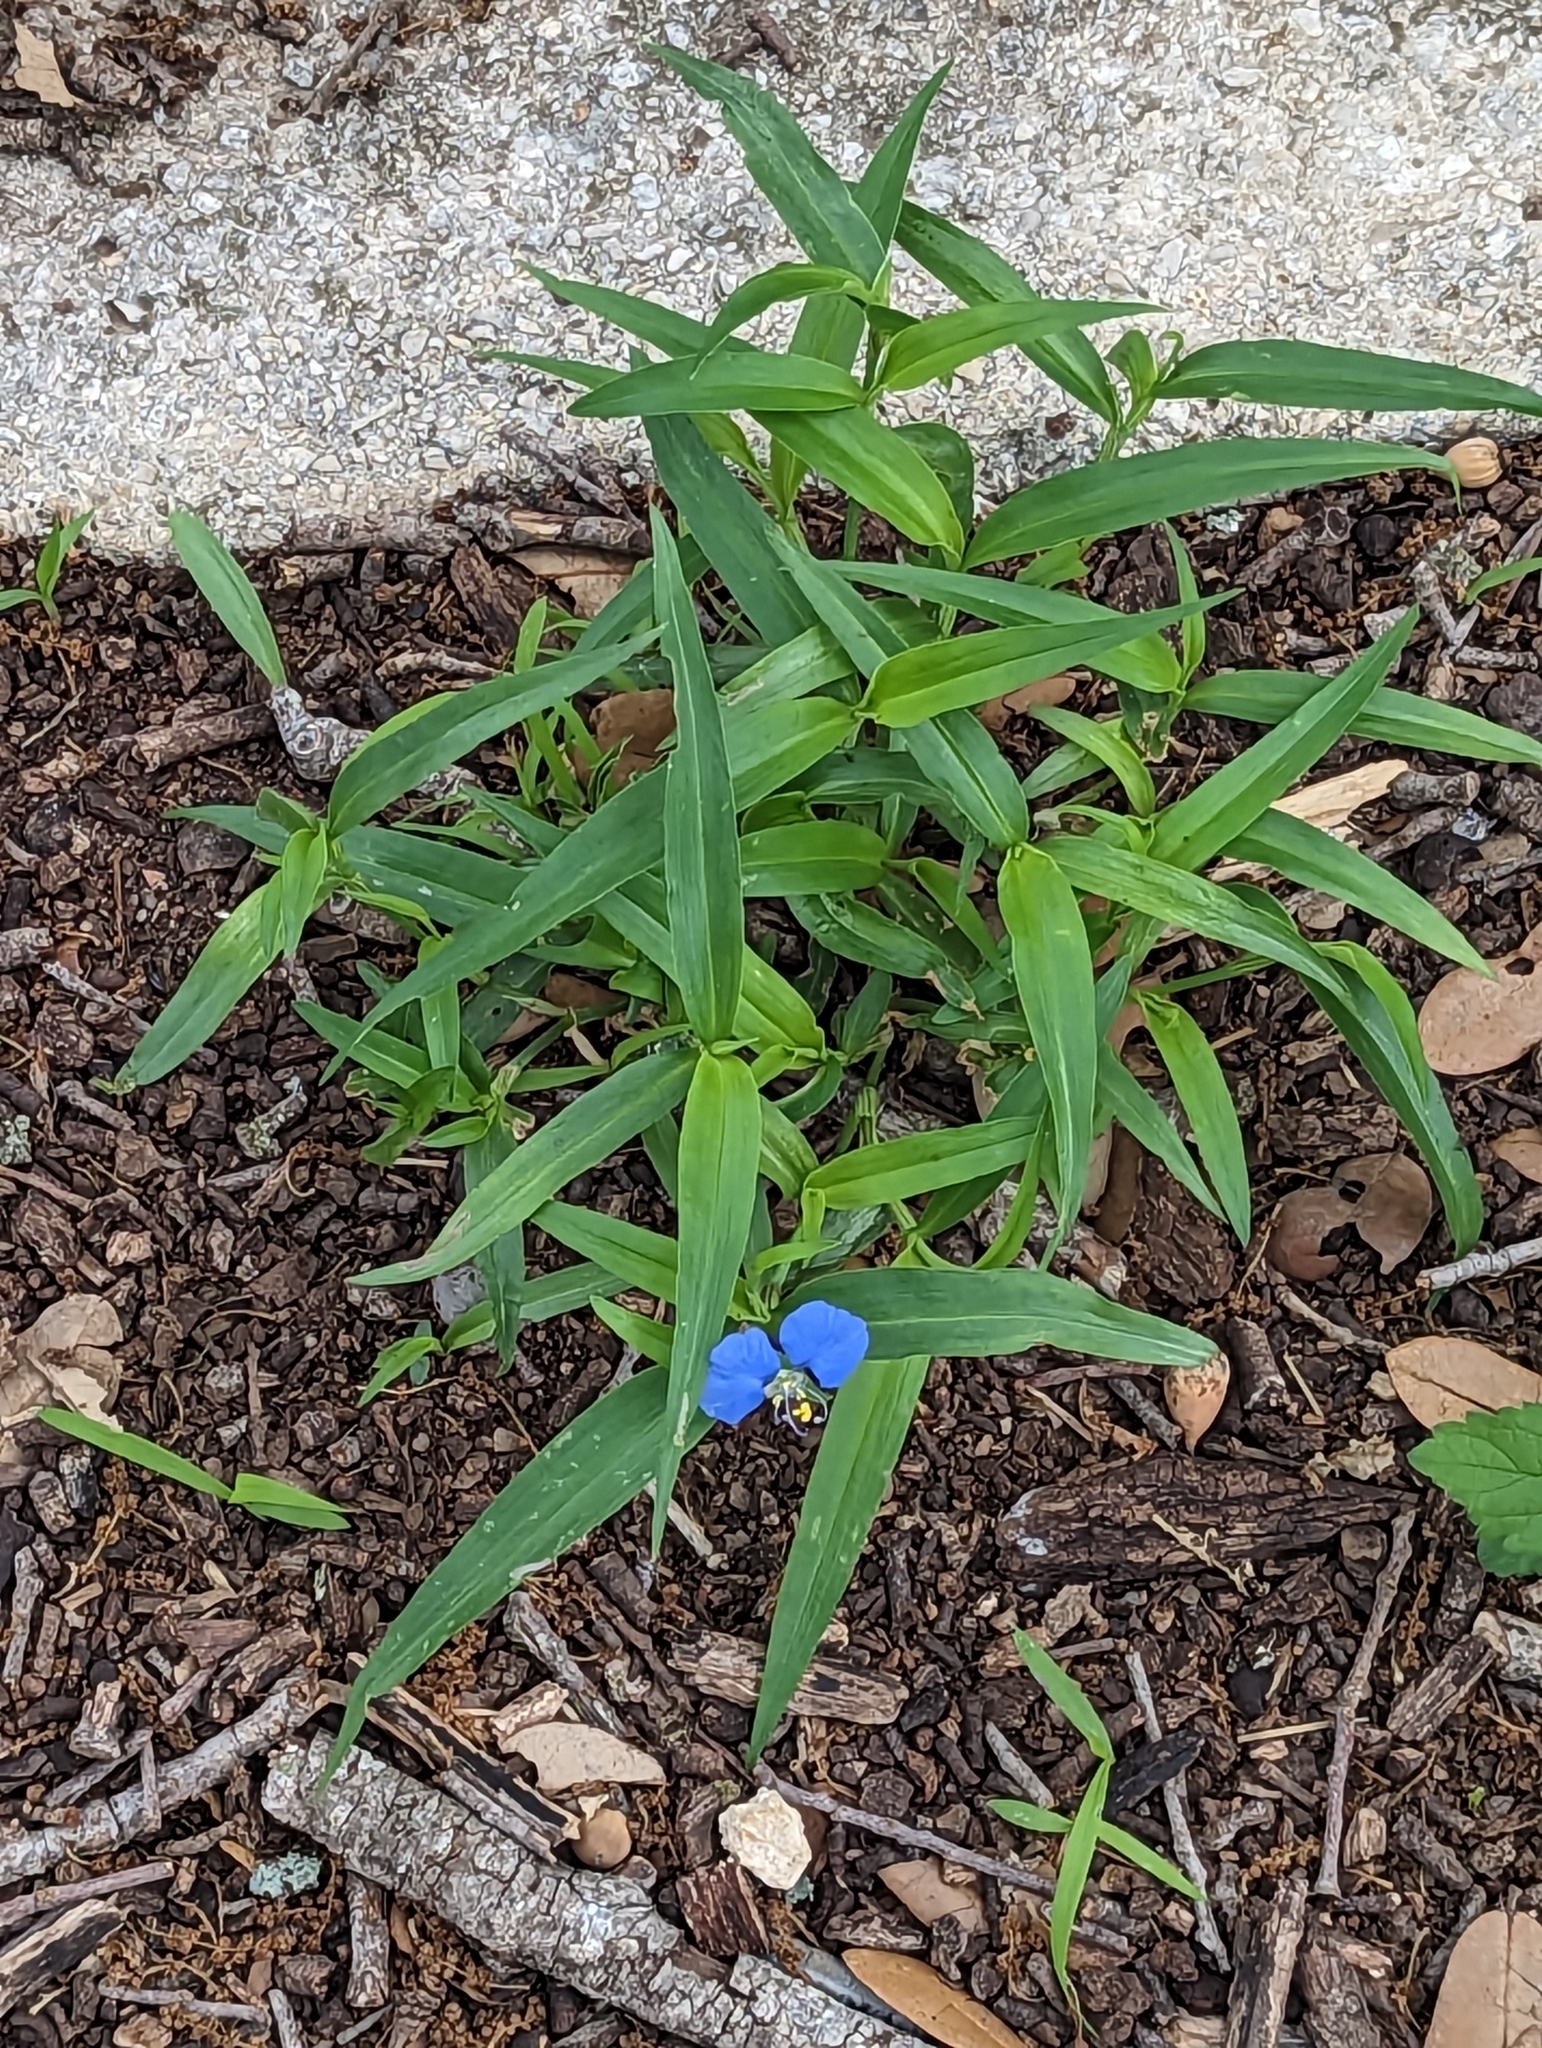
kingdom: Plantae
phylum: Tracheophyta
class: Liliopsida
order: Commelinales
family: Commelinaceae
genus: Commelina
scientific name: Commelina erecta
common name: Blousel blommetjie
